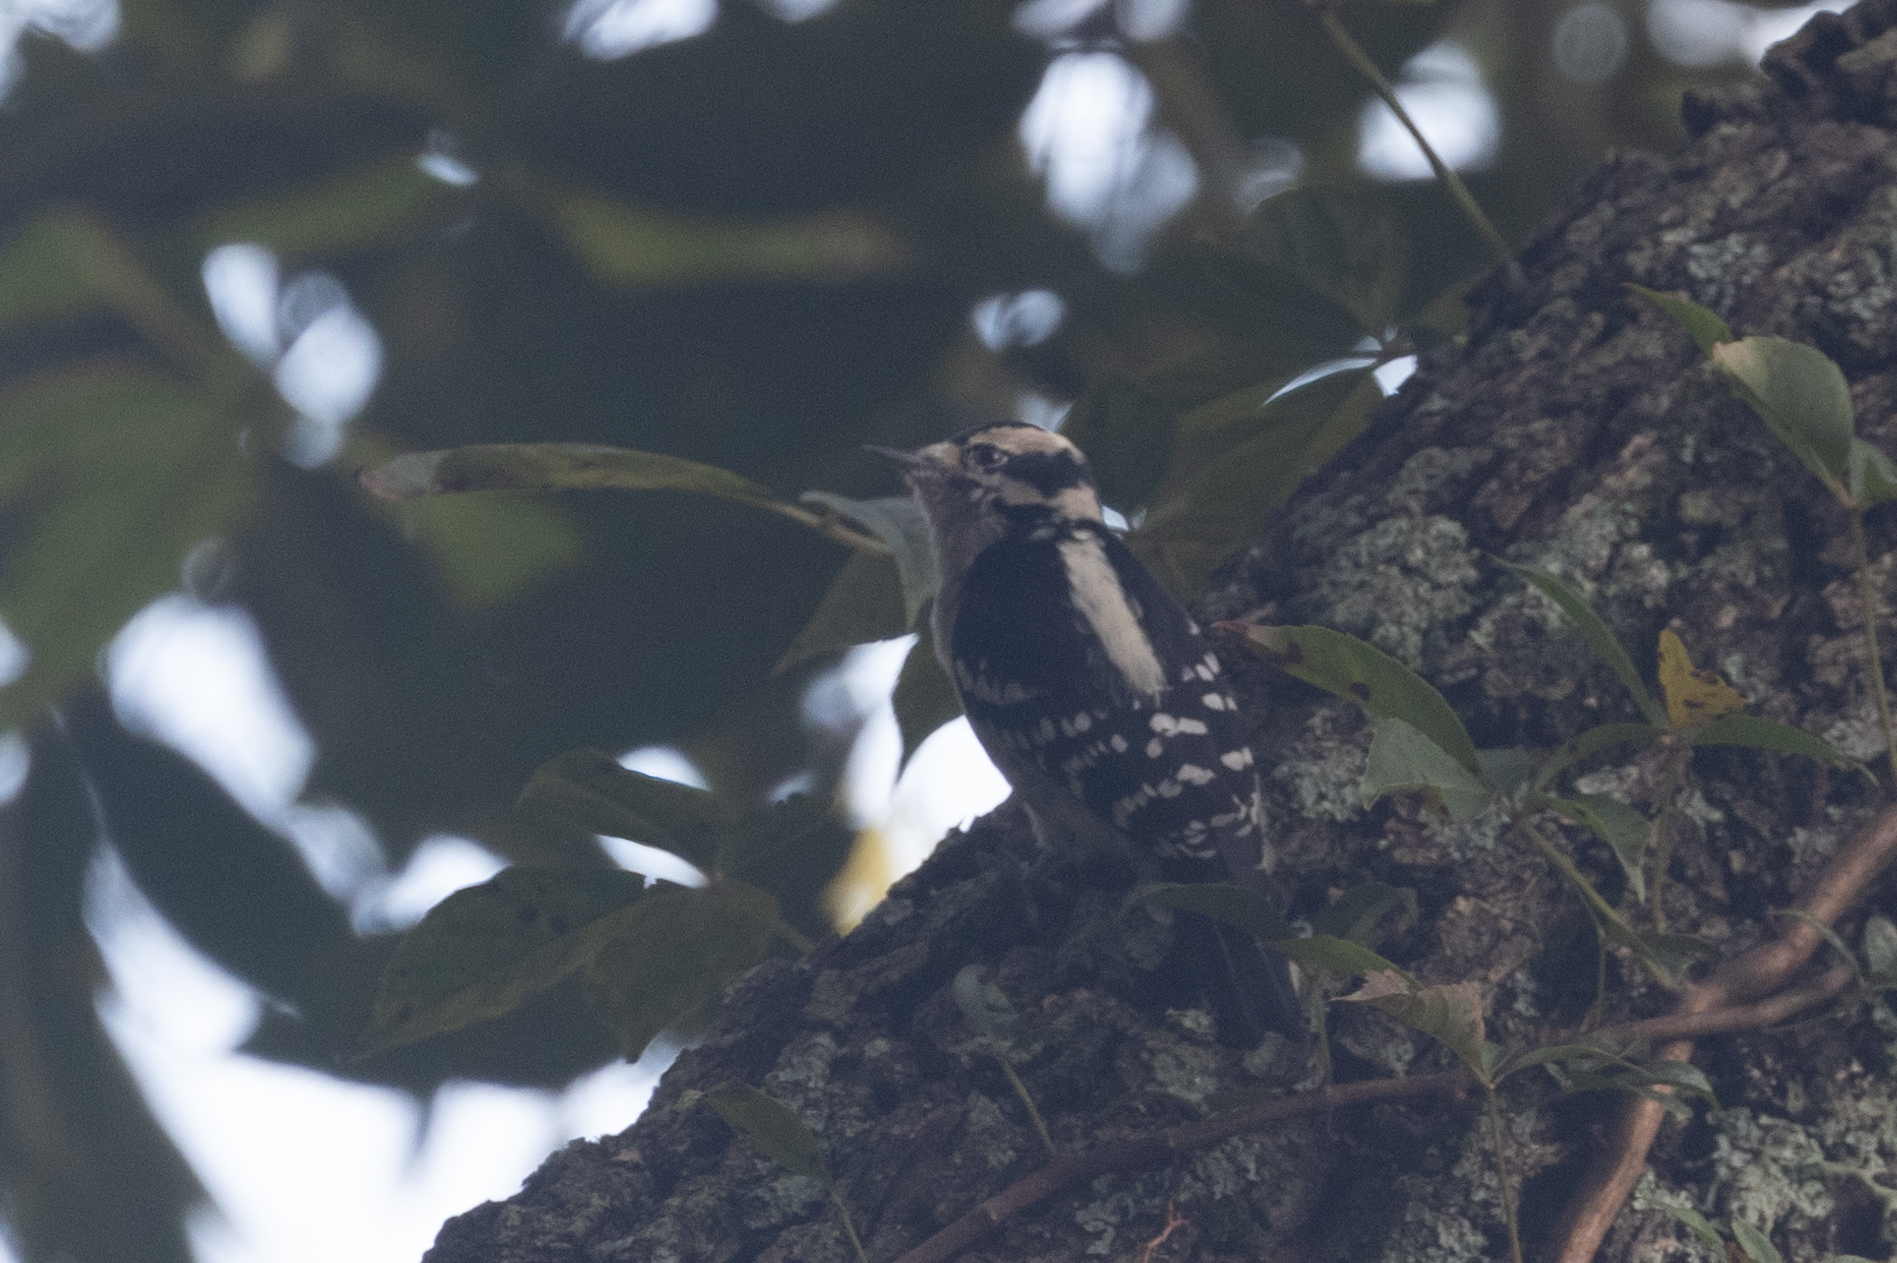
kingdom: Animalia
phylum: Chordata
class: Aves
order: Piciformes
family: Picidae
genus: Dryobates
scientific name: Dryobates pubescens
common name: Downy woodpecker
